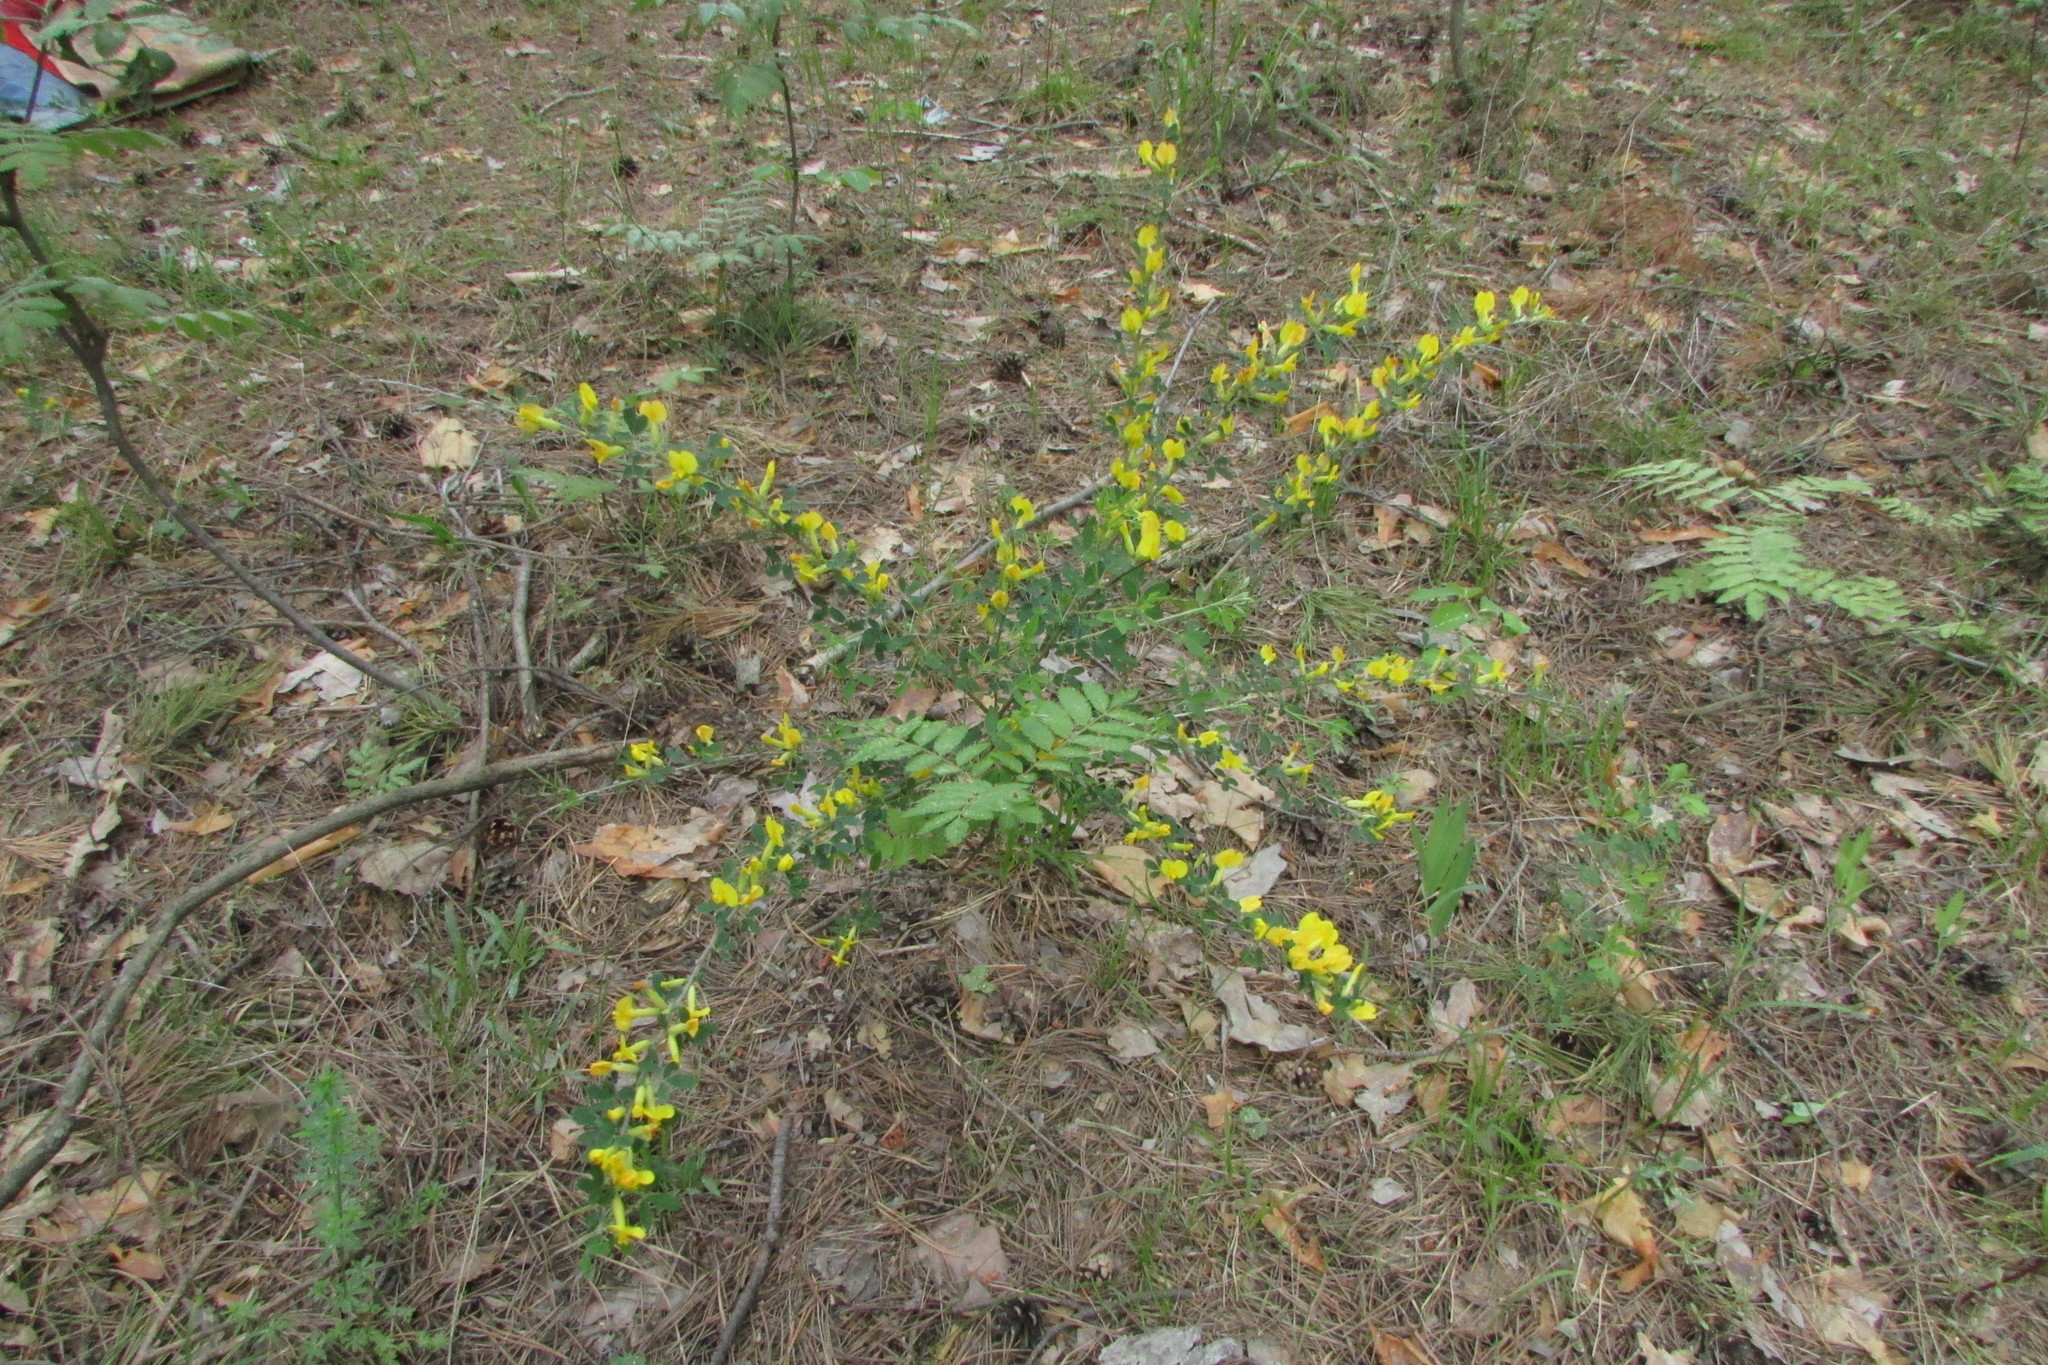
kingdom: Plantae
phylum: Tracheophyta
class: Magnoliopsida
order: Fabales
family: Fabaceae
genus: Chamaecytisus
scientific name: Chamaecytisus ruthenicus
